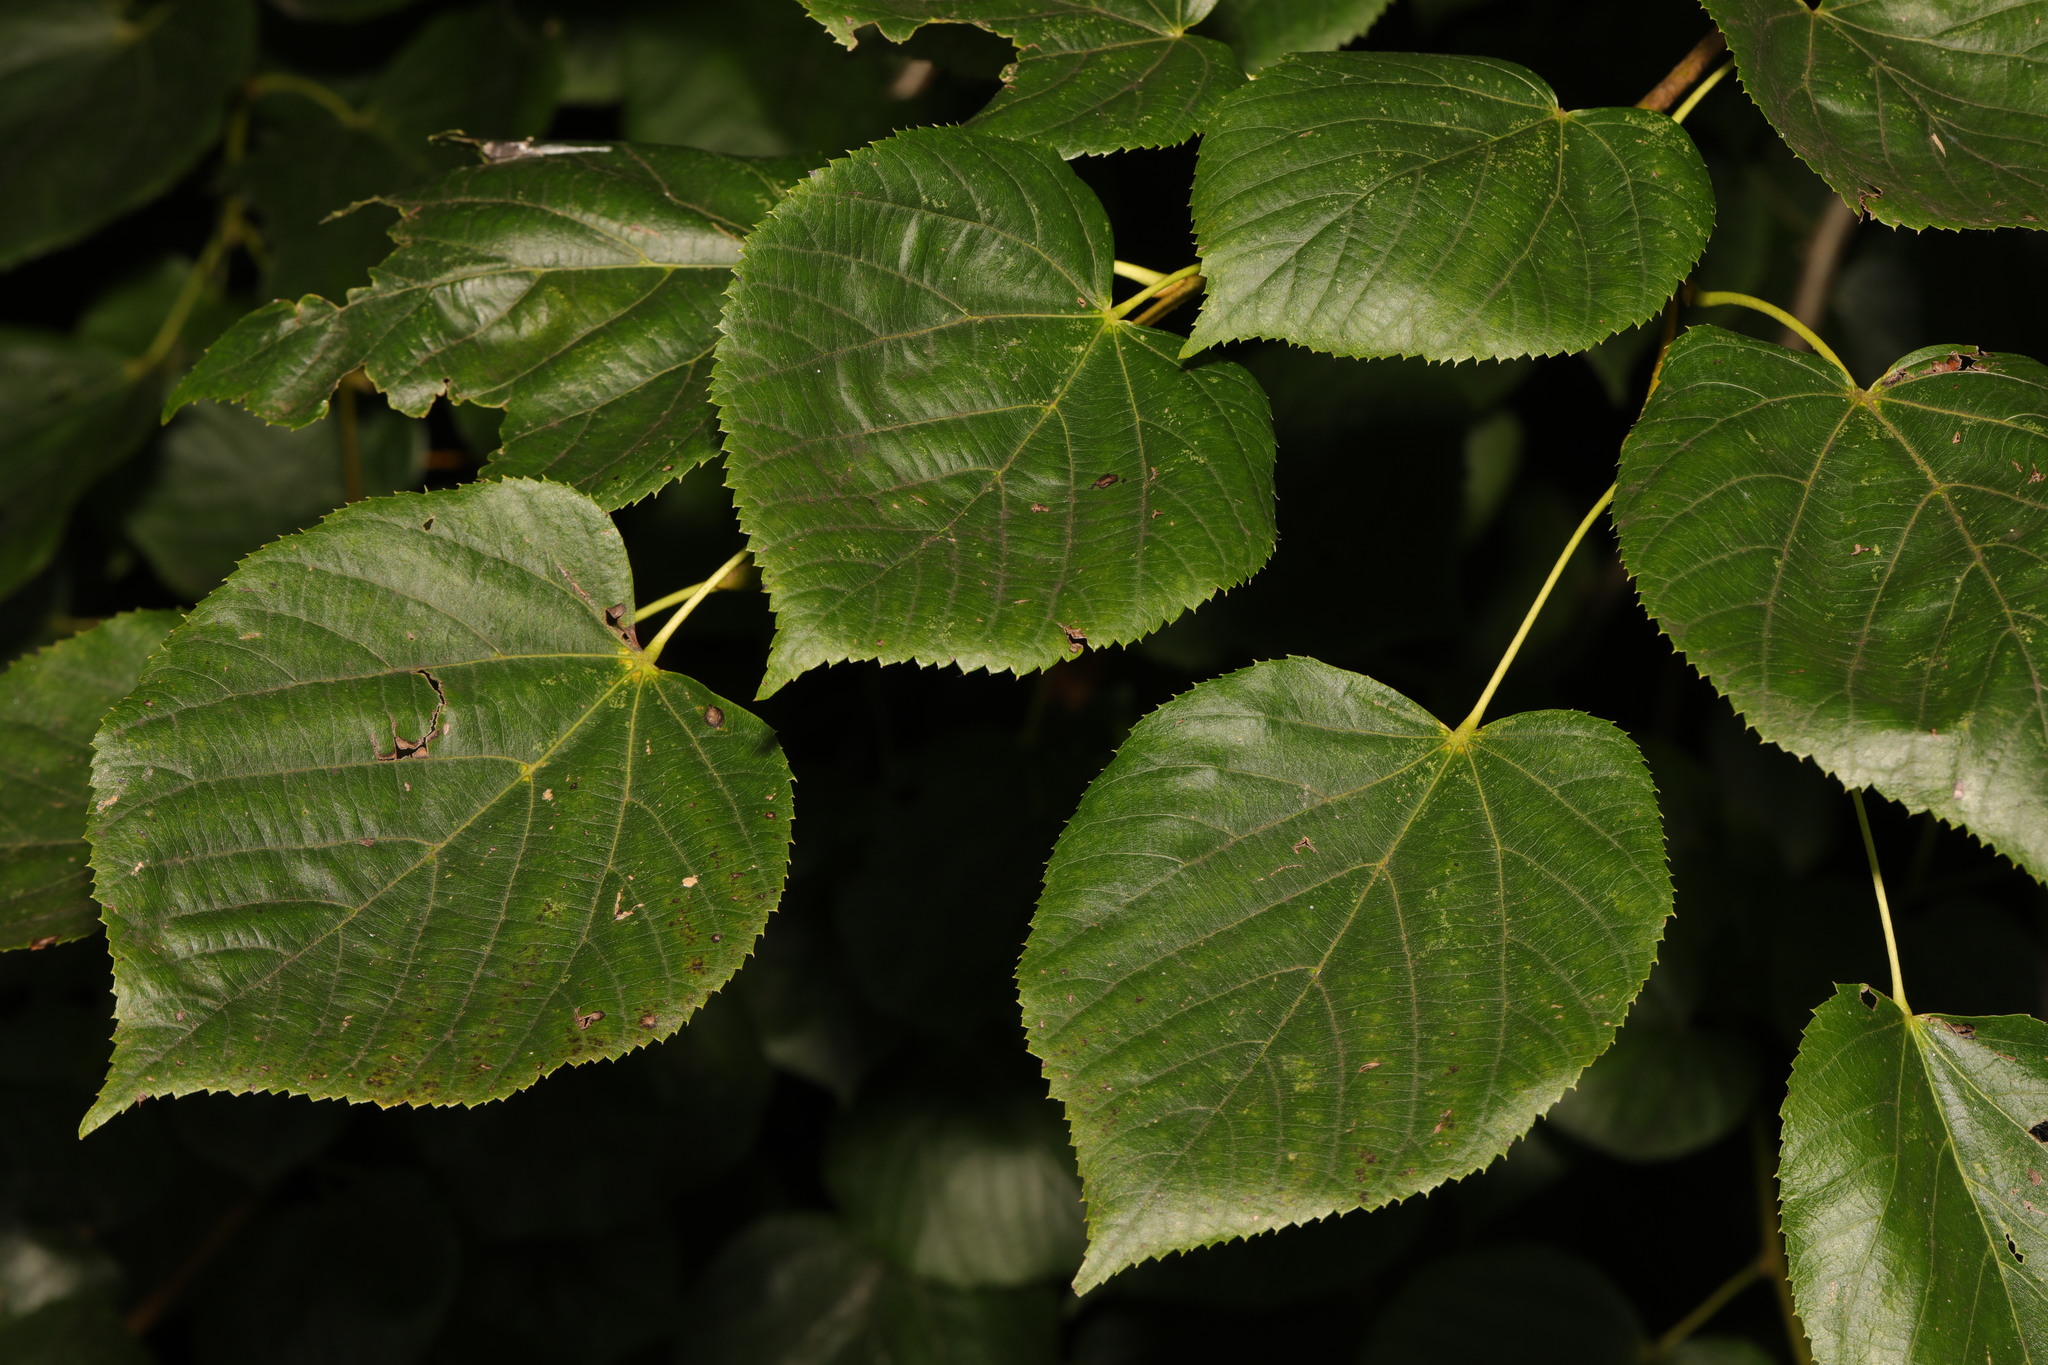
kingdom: Plantae
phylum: Tracheophyta
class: Magnoliopsida
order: Malvales
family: Malvaceae
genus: Tilia
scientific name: Tilia europaea
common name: European linden
